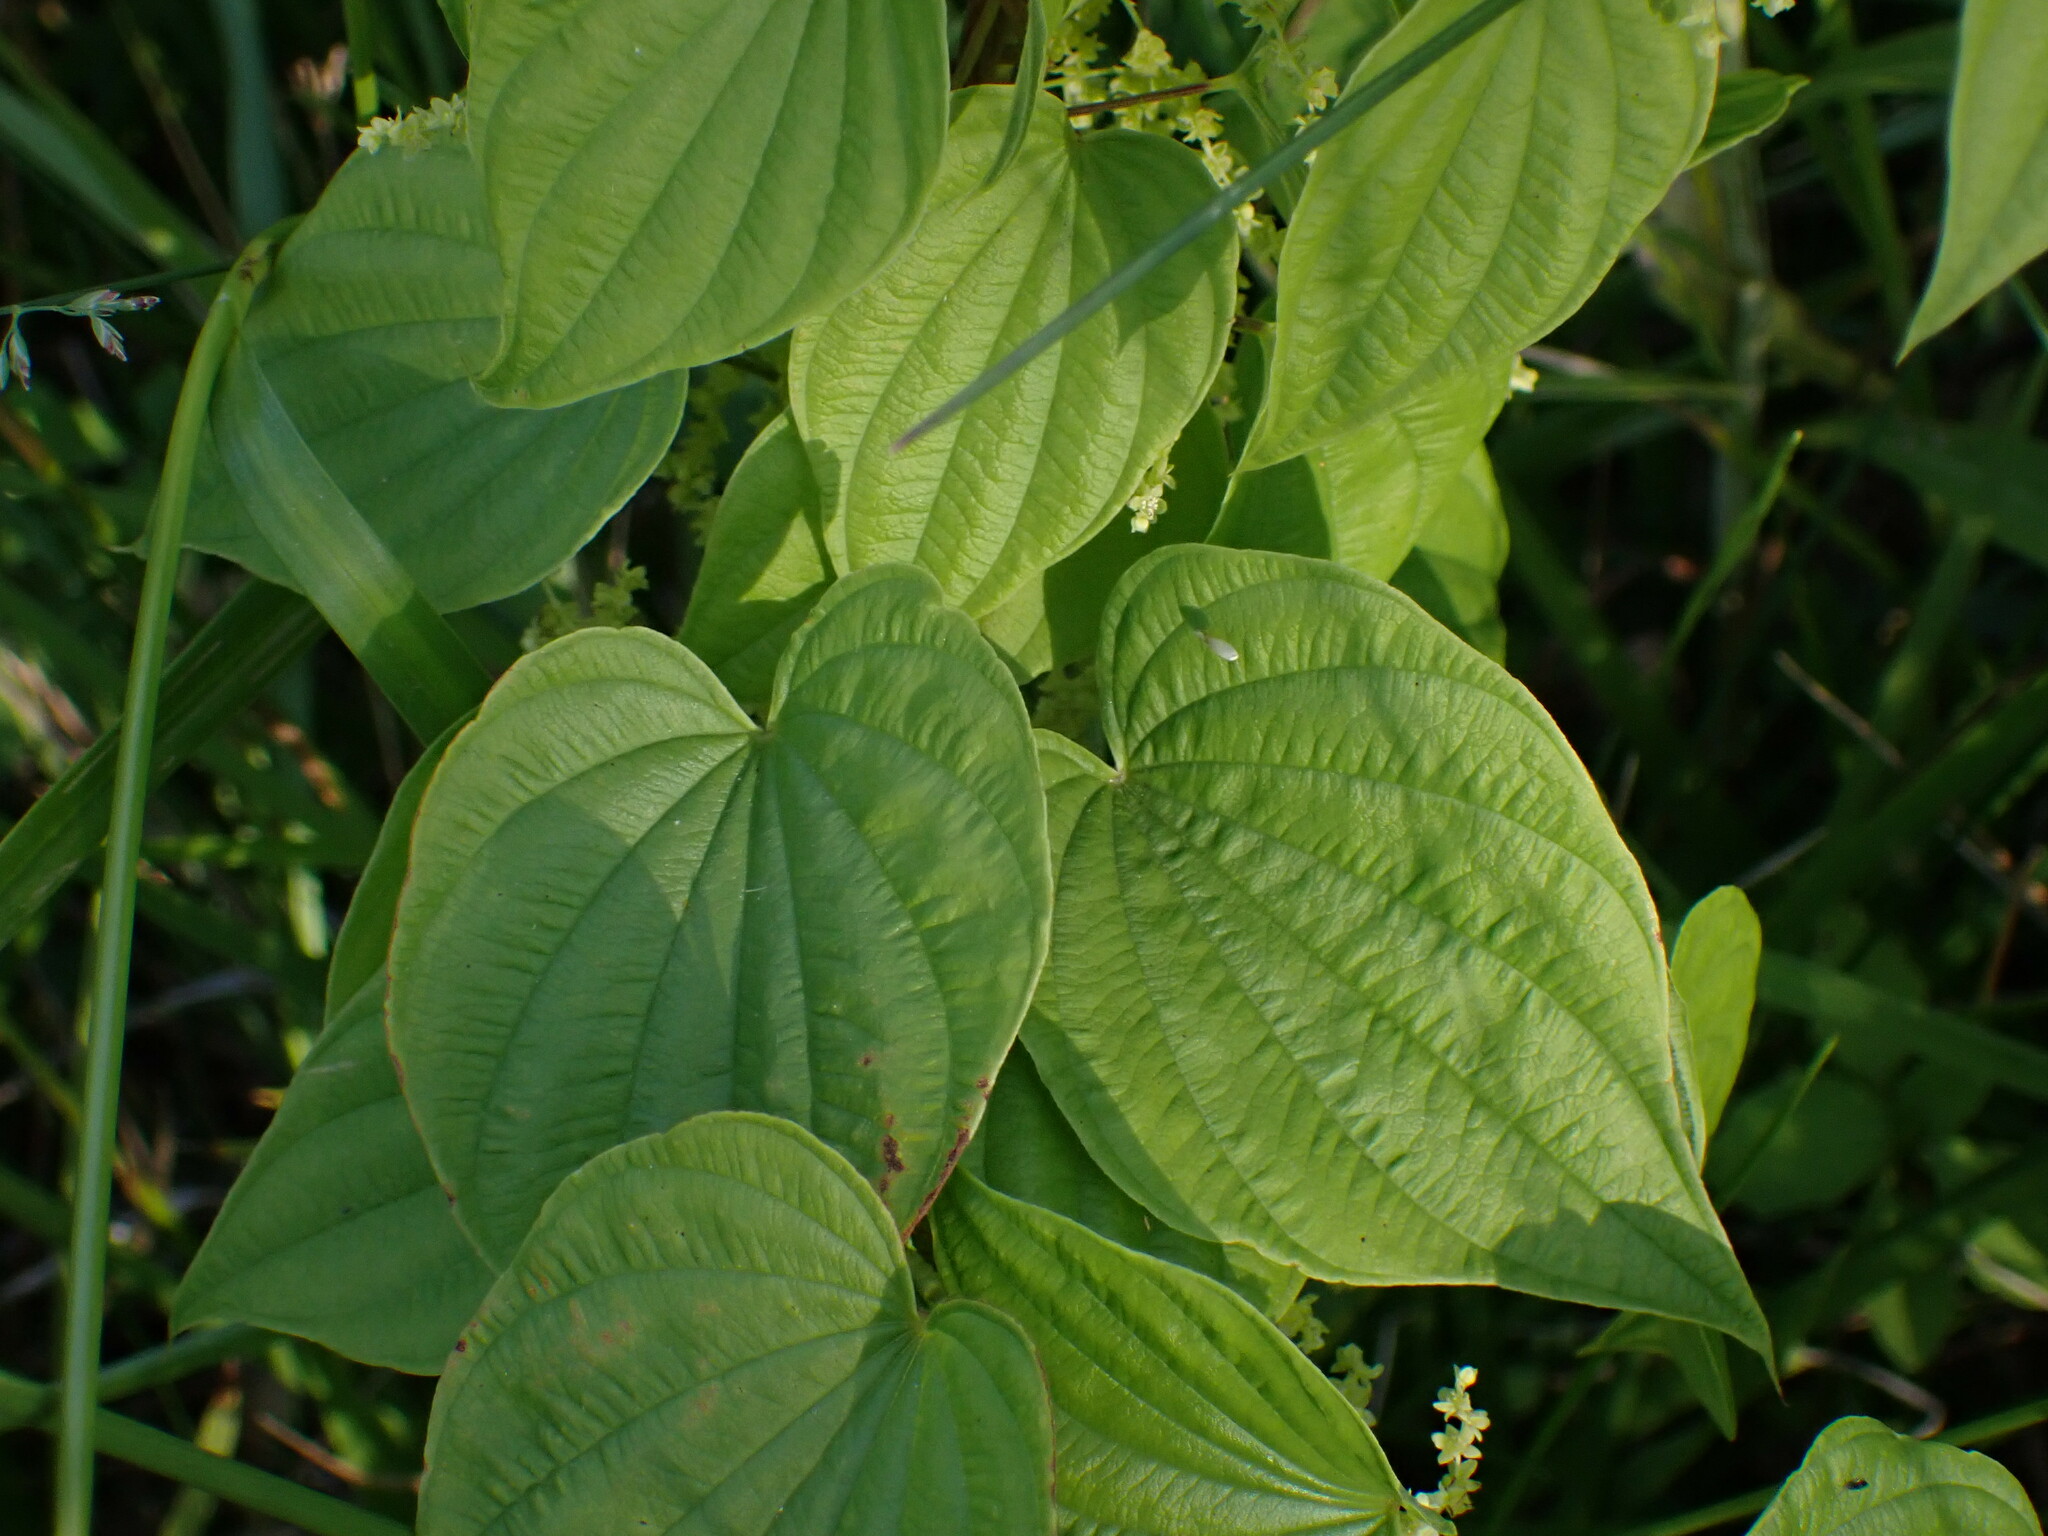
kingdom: Plantae
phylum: Tracheophyta
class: Liliopsida
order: Dioscoreales
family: Dioscoreaceae
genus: Dioscorea
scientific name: Dioscorea villosa
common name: Wild yam
